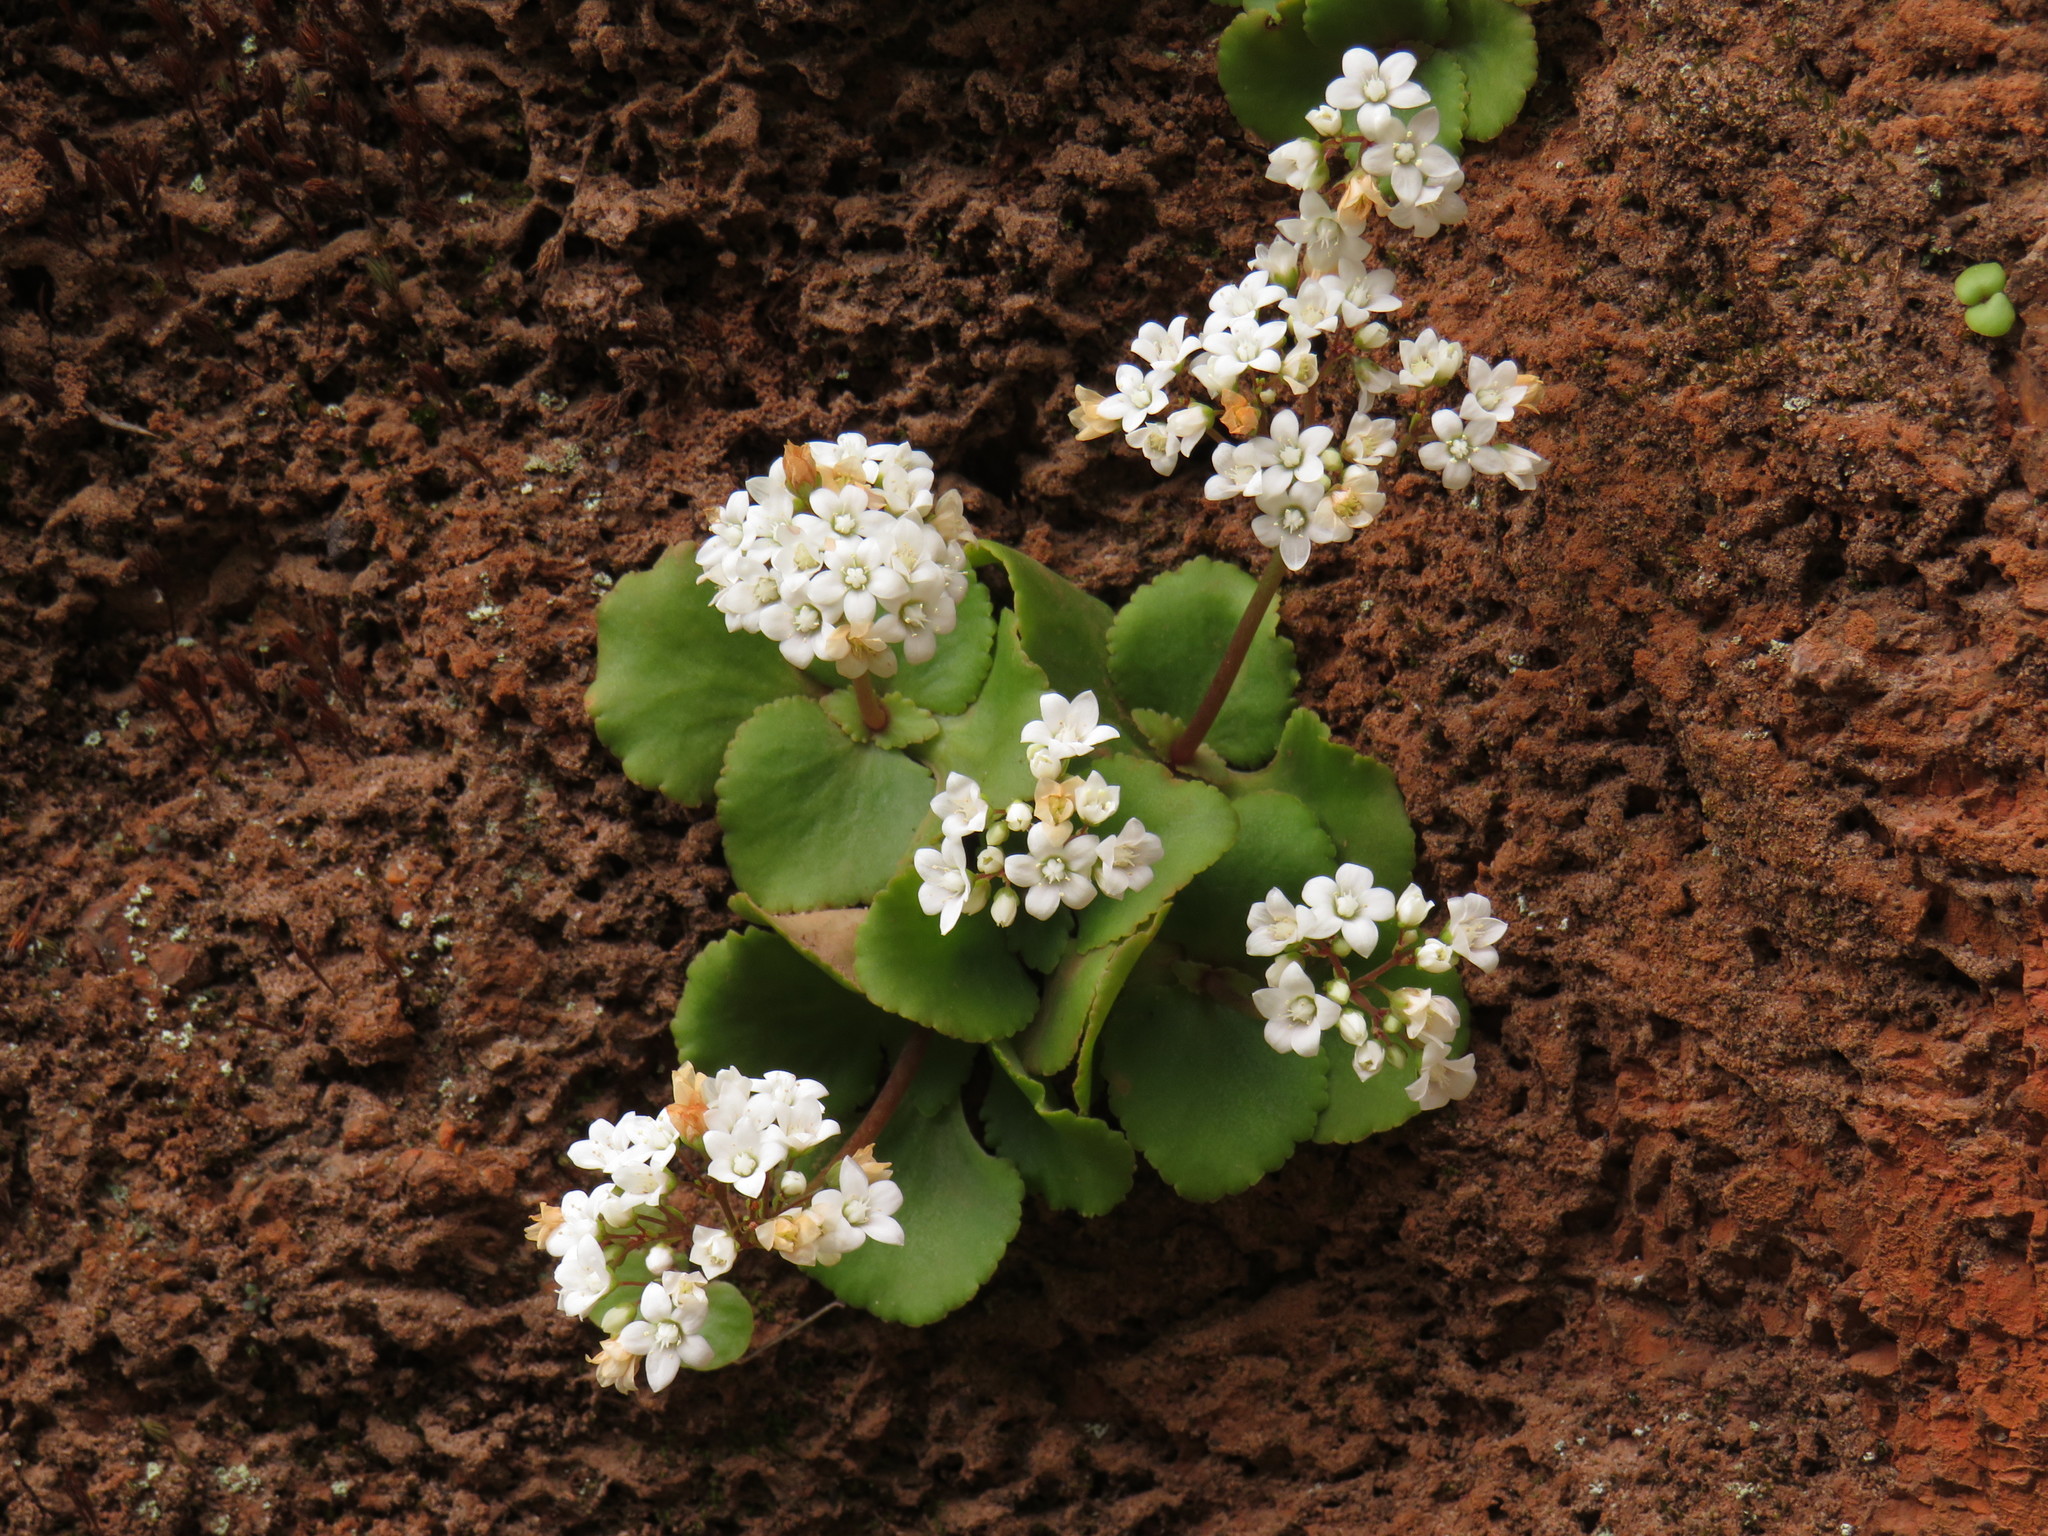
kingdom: Plantae
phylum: Tracheophyta
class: Magnoliopsida
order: Saxifragales
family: Crassulaceae
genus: Crassula
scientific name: Crassula capensis
